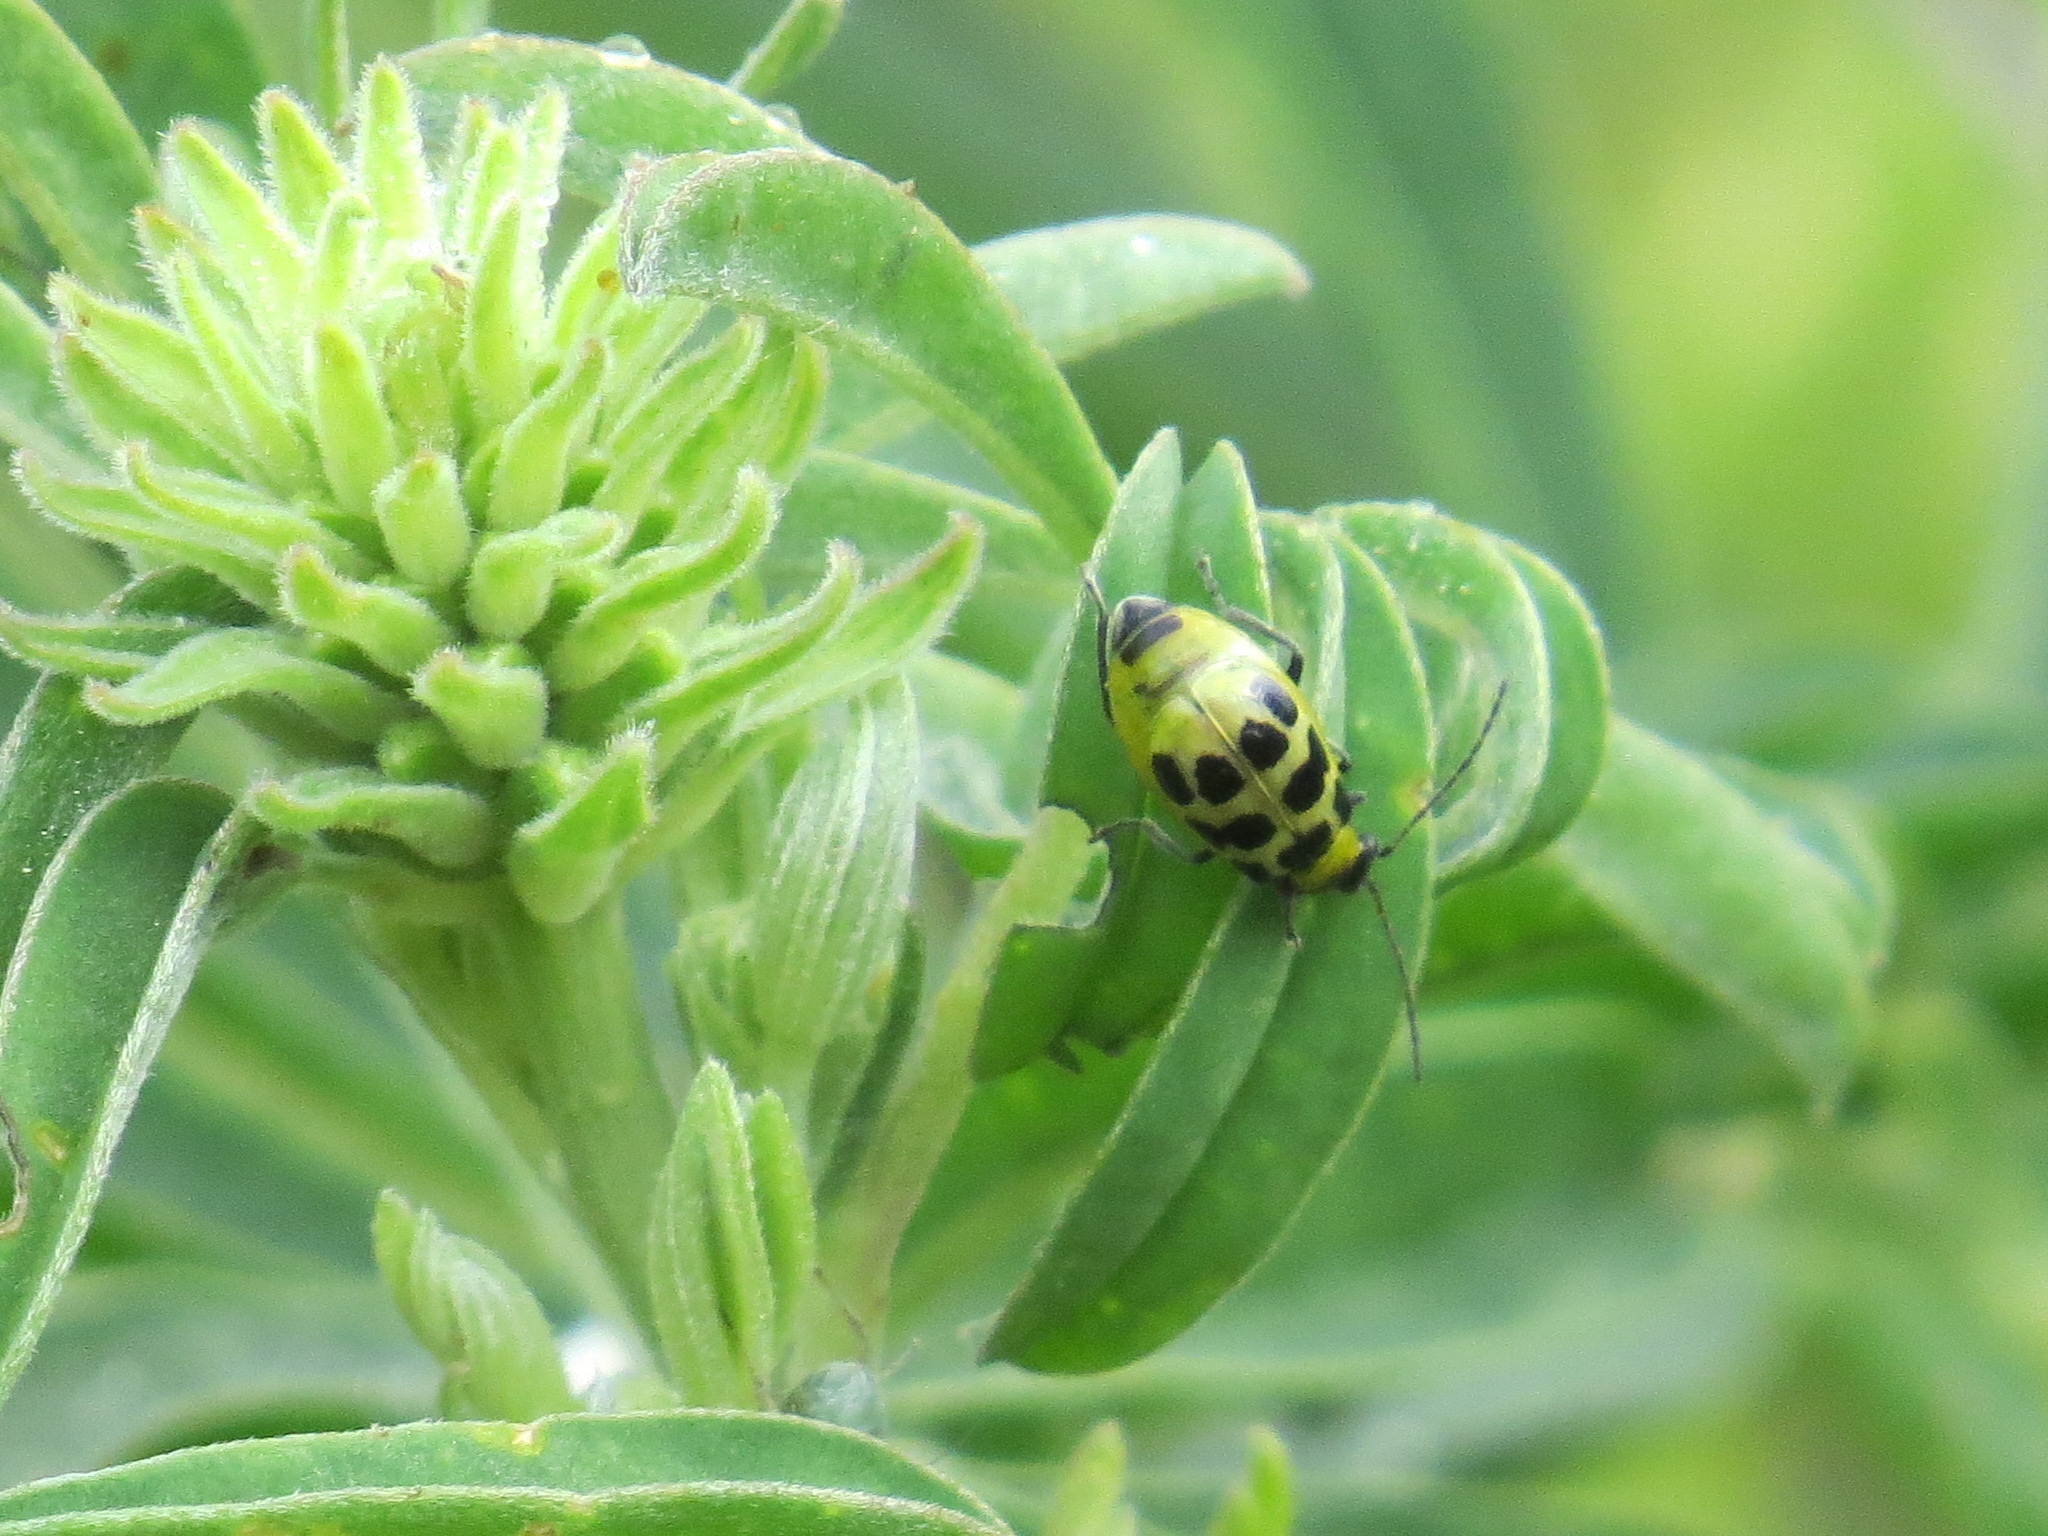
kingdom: Animalia
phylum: Arthropoda
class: Insecta
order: Coleoptera
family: Chrysomelidae
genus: Diabrotica
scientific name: Diabrotica undecimpunctata
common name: Spotted cucumber beetle
